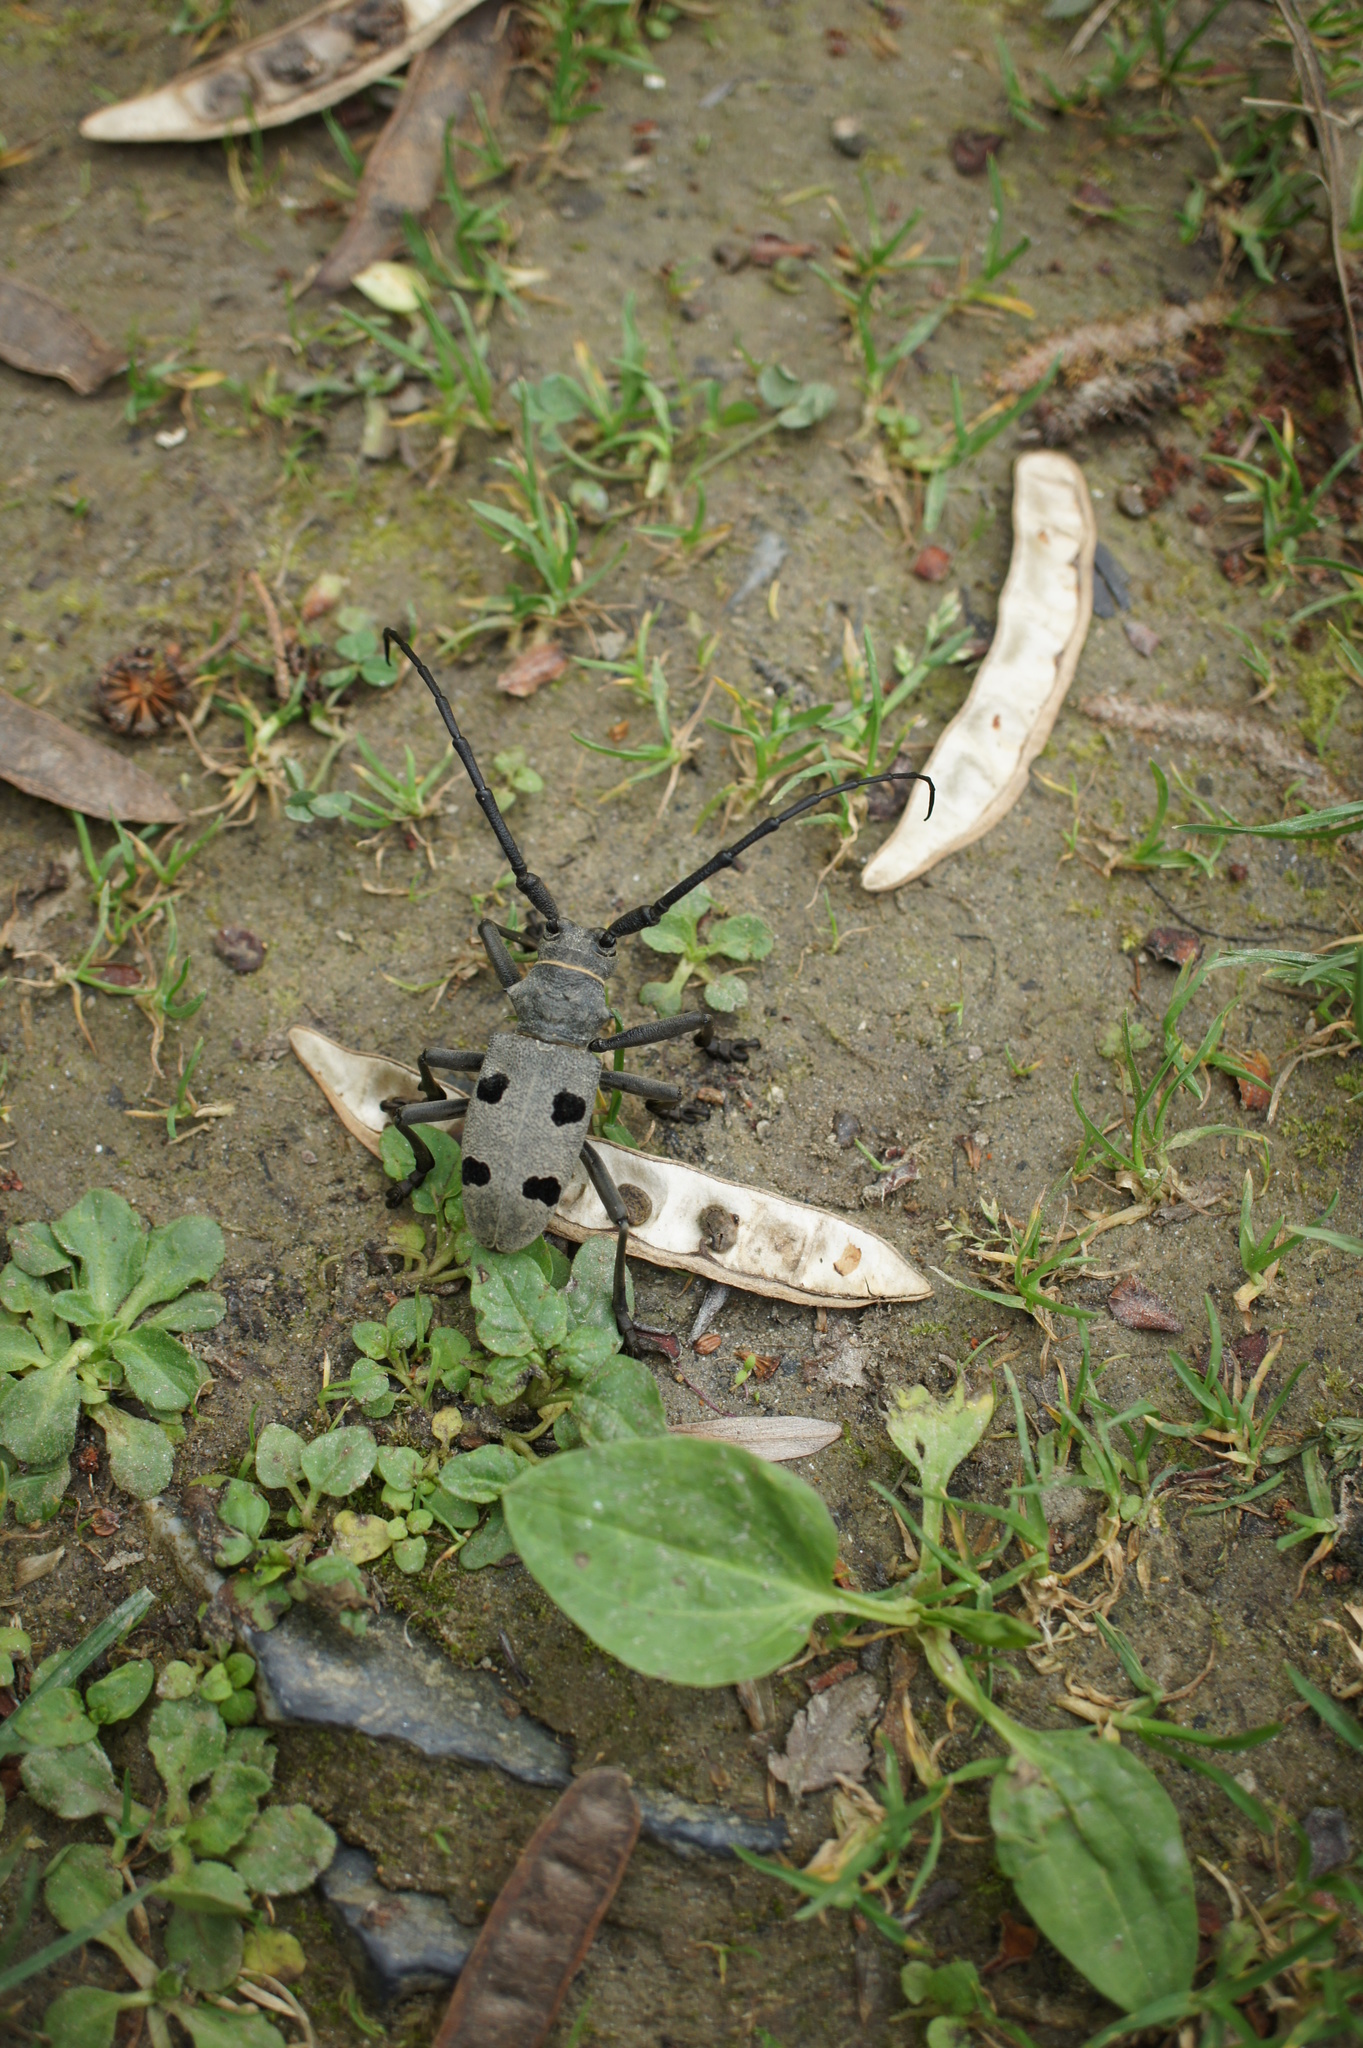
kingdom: Animalia
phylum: Arthropoda
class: Insecta
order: Coleoptera
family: Cerambycidae
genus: Morimus
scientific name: Morimus funereus
